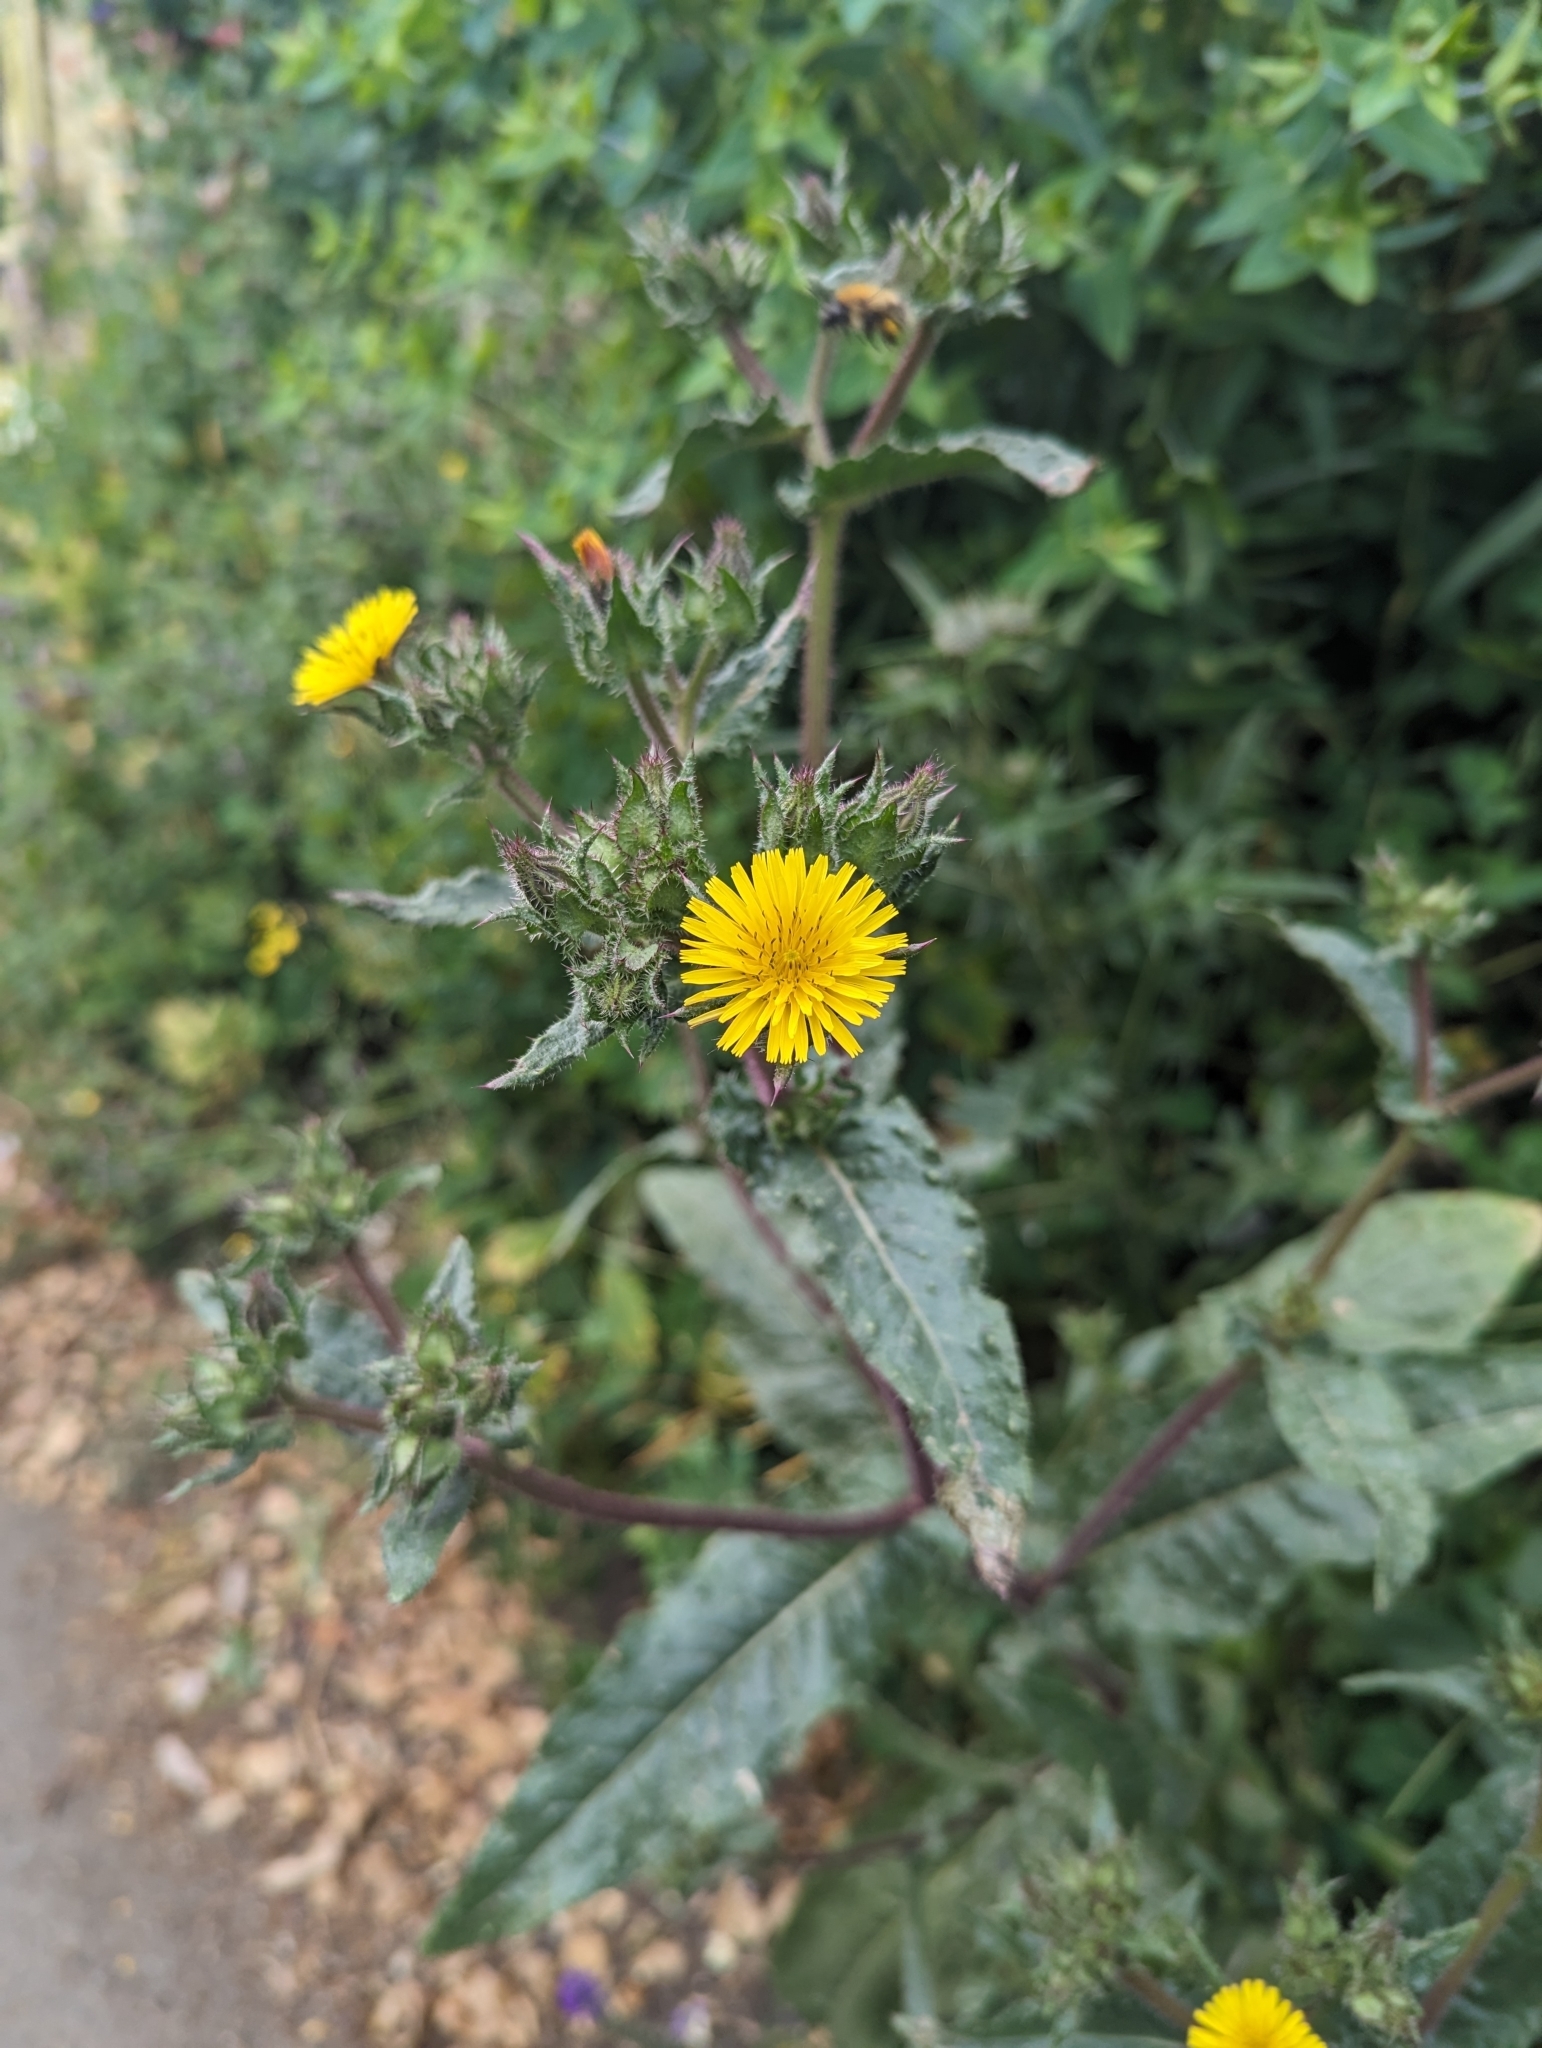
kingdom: Plantae
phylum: Tracheophyta
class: Magnoliopsida
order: Asterales
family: Asteraceae
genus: Helminthotheca
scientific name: Helminthotheca echioides
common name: Ox-tongue
